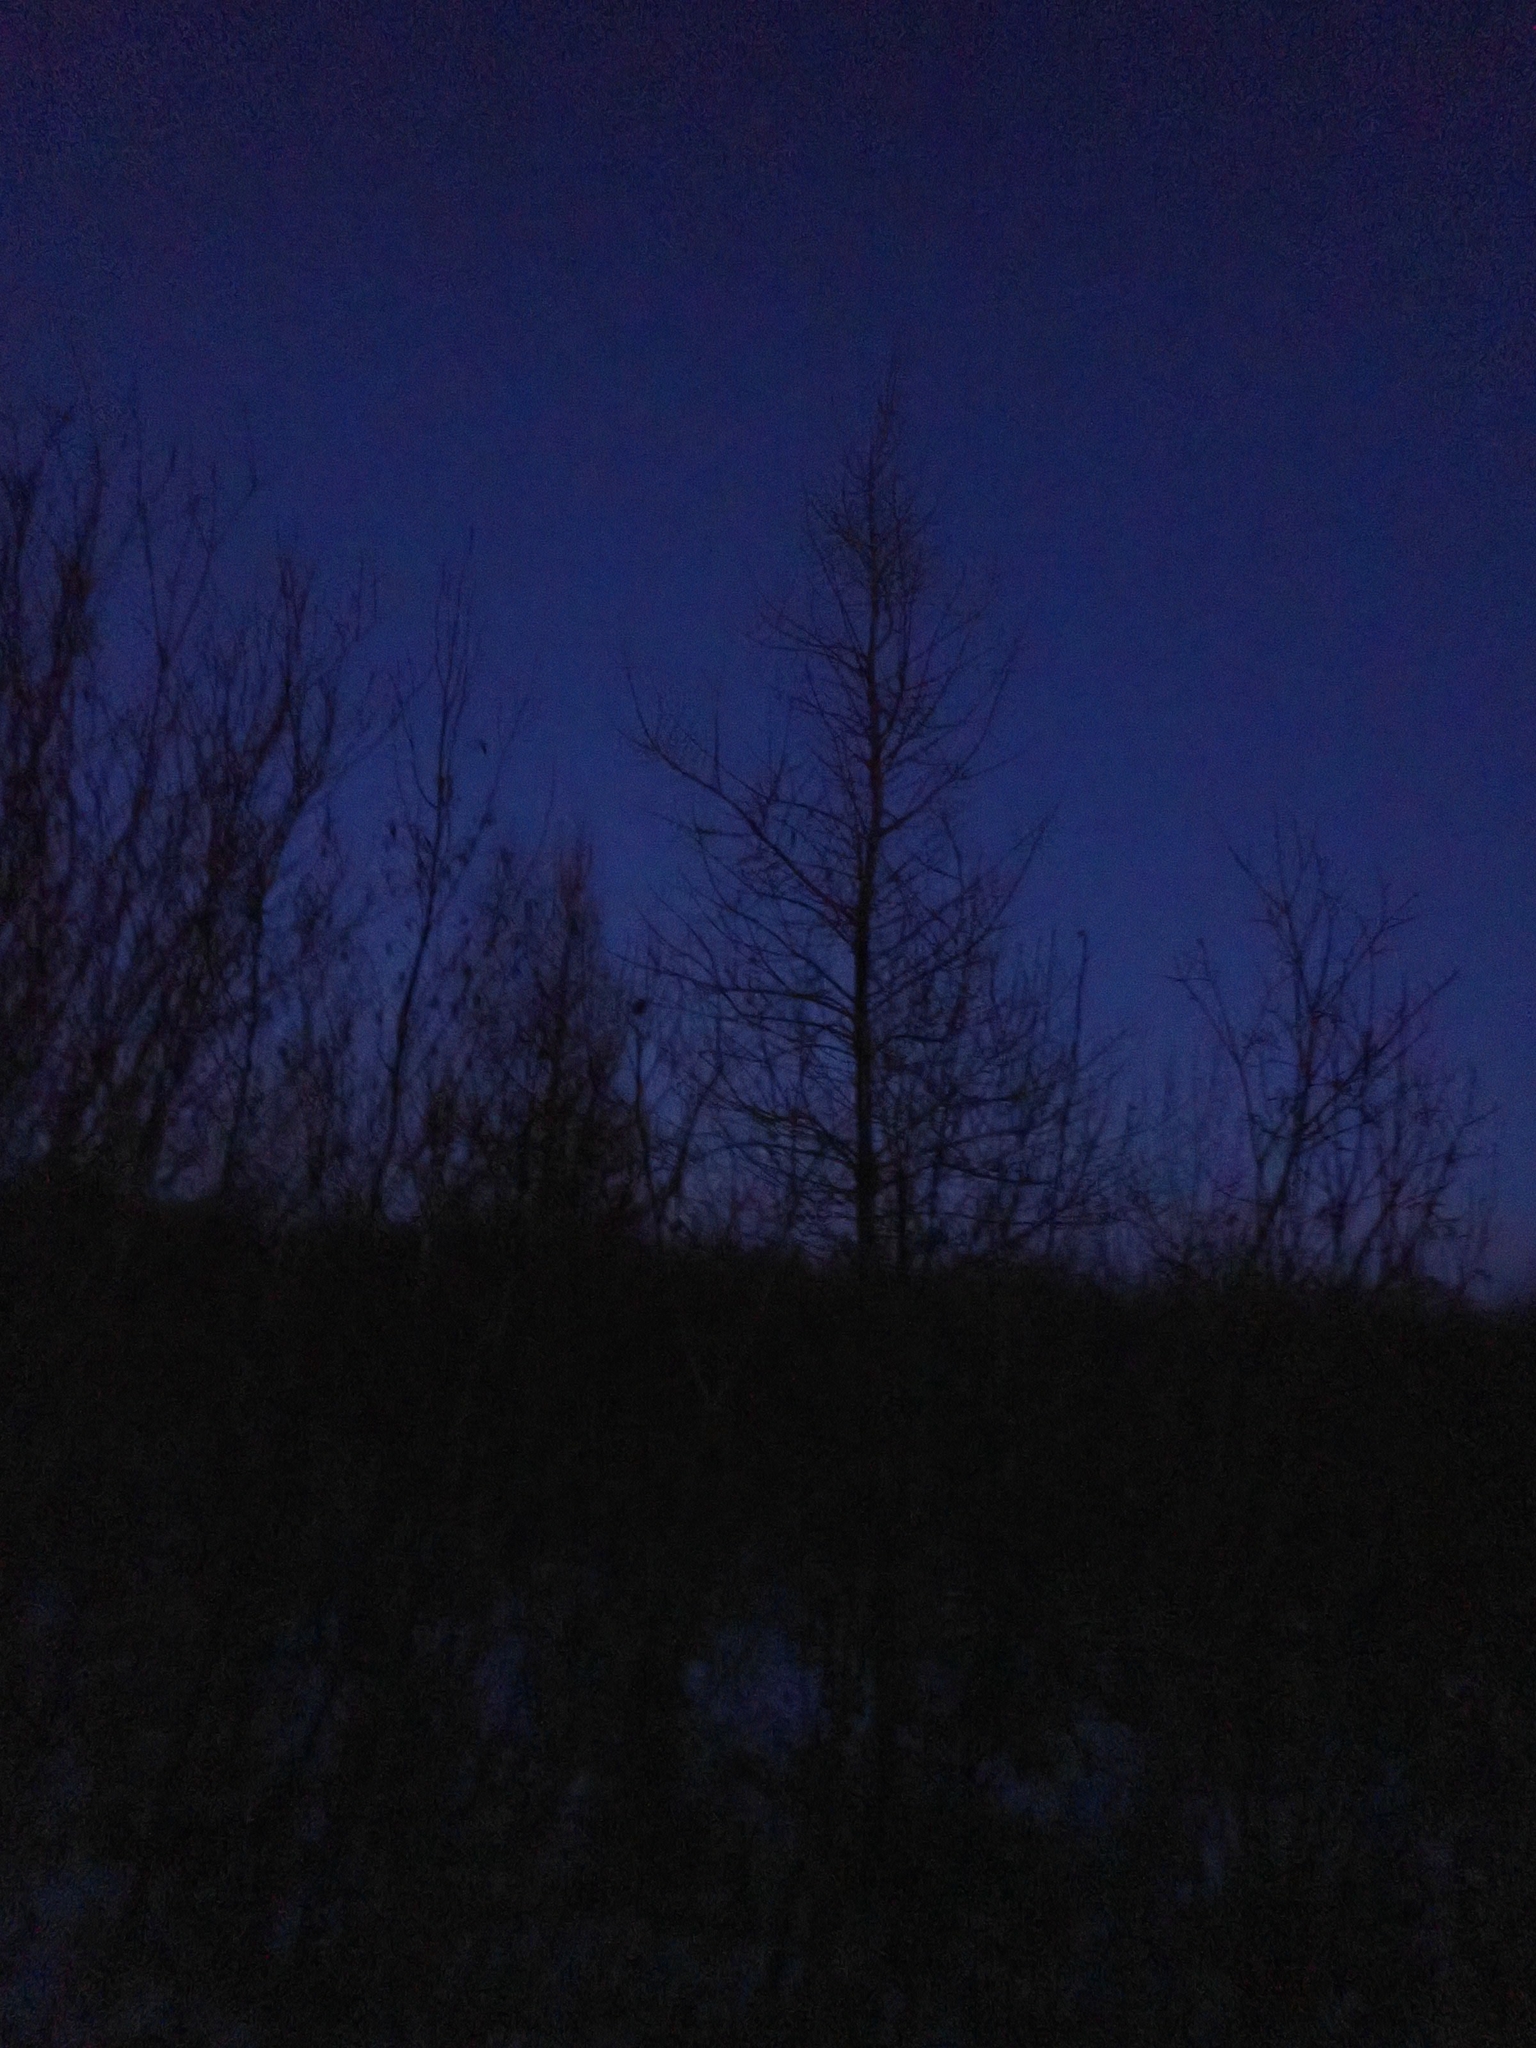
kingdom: Plantae
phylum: Tracheophyta
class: Pinopsida
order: Pinales
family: Pinaceae
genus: Larix
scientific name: Larix laricina
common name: American larch
